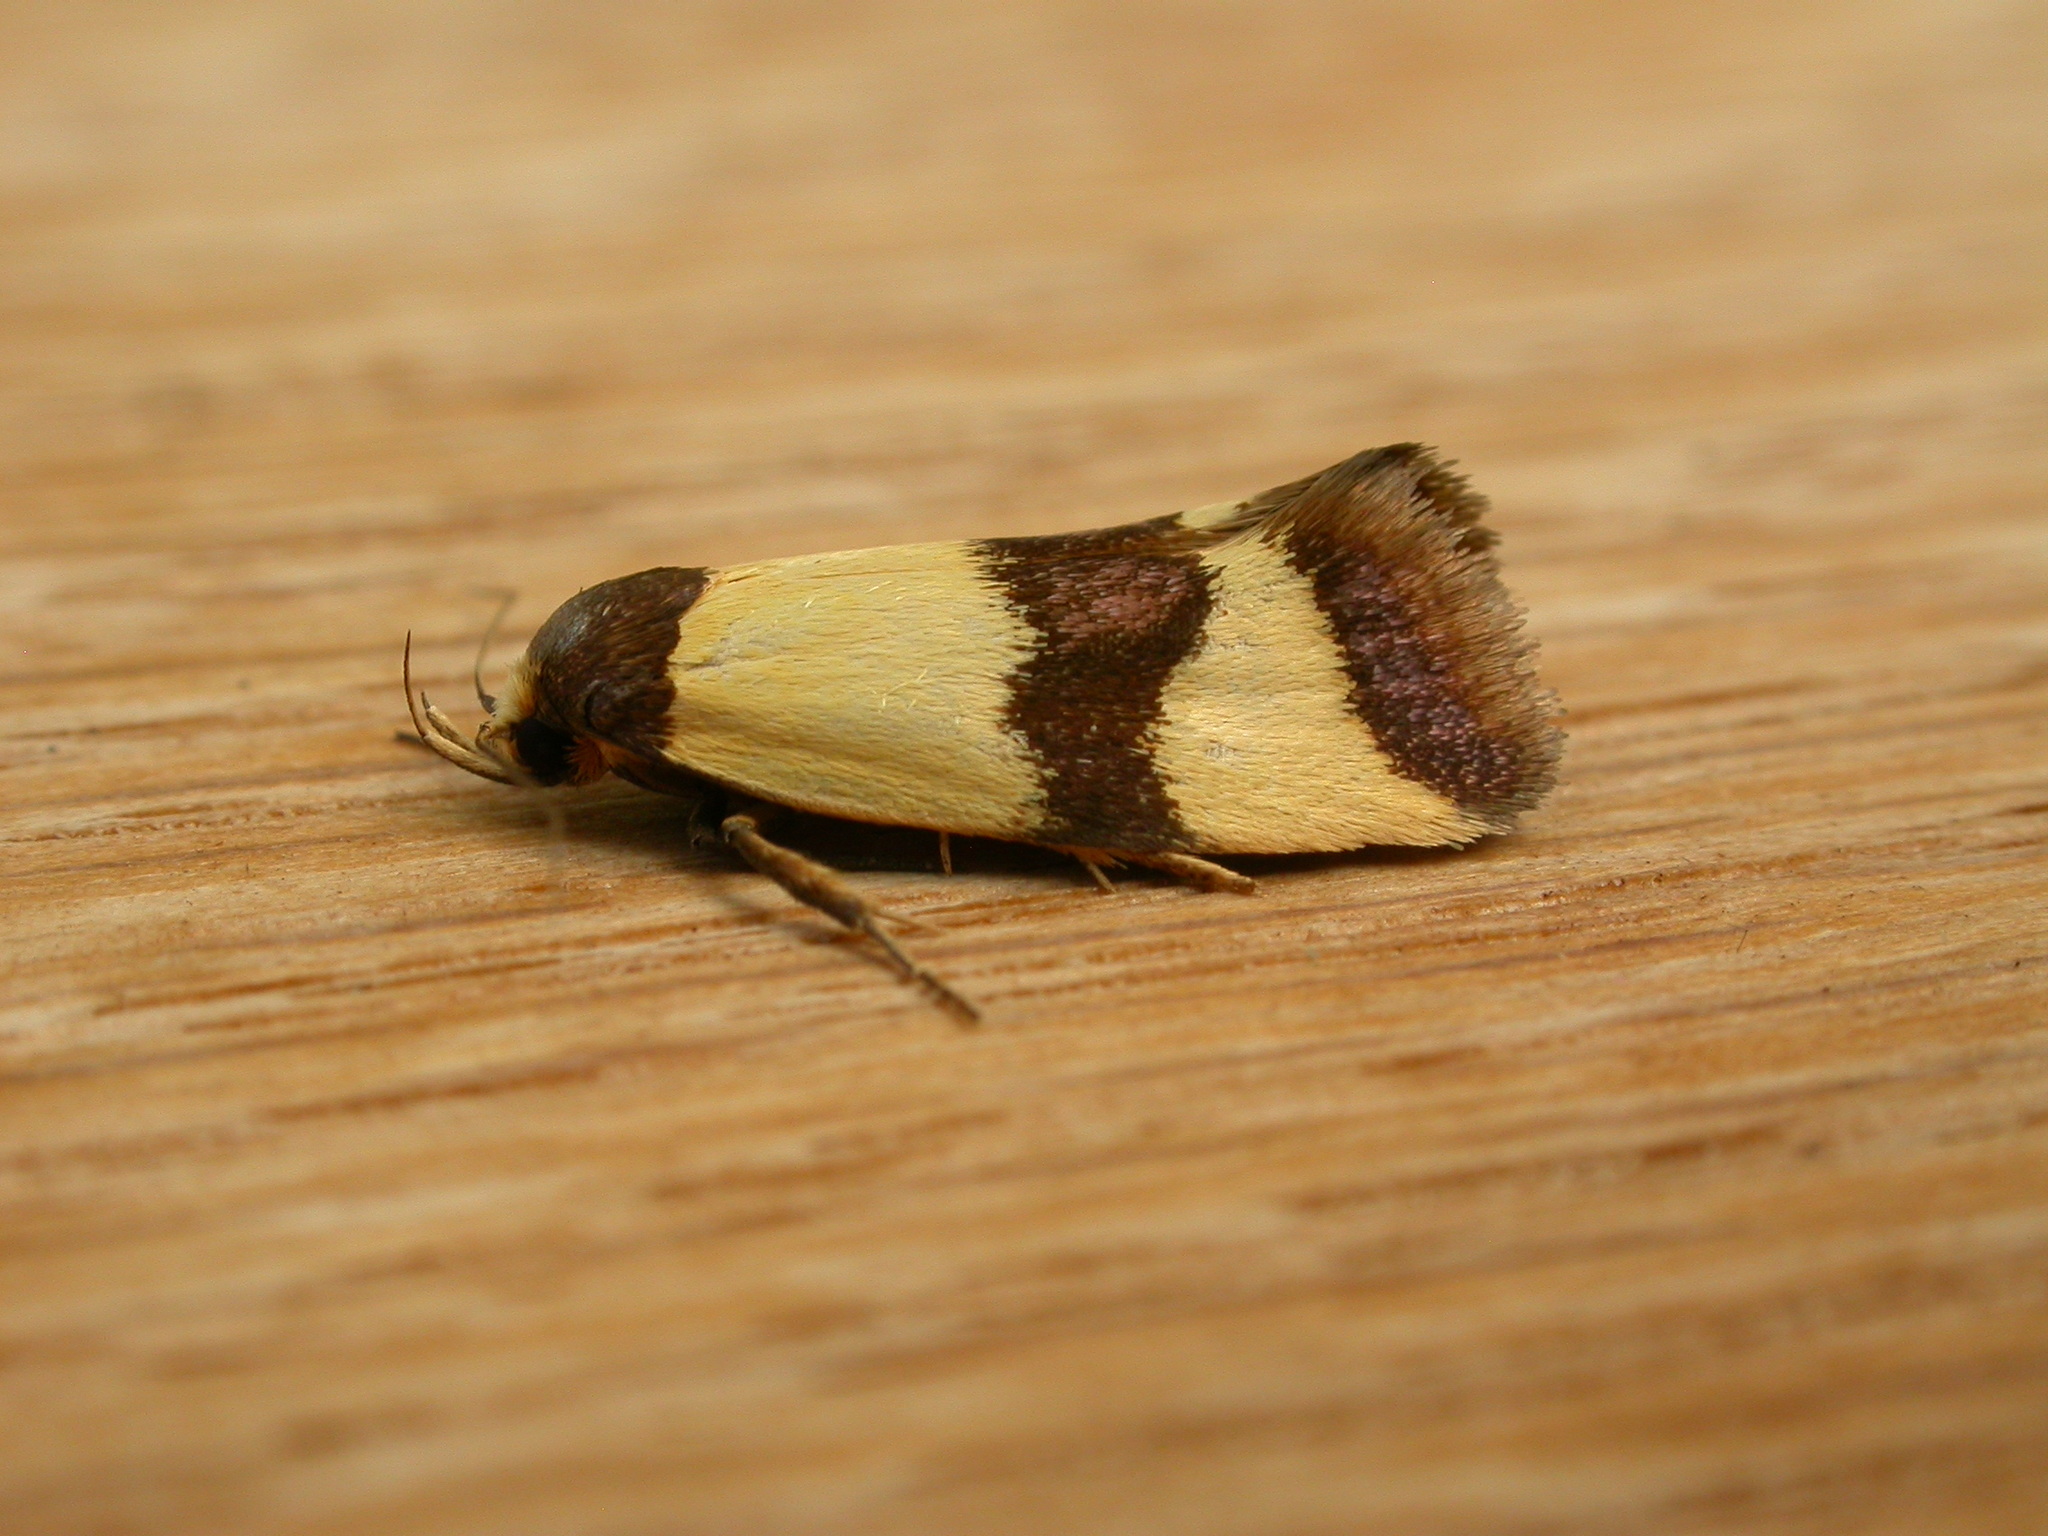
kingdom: Animalia
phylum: Arthropoda
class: Insecta
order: Lepidoptera
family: Oecophoridae
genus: Chrysonoma
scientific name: Chrysonoma fascialis
